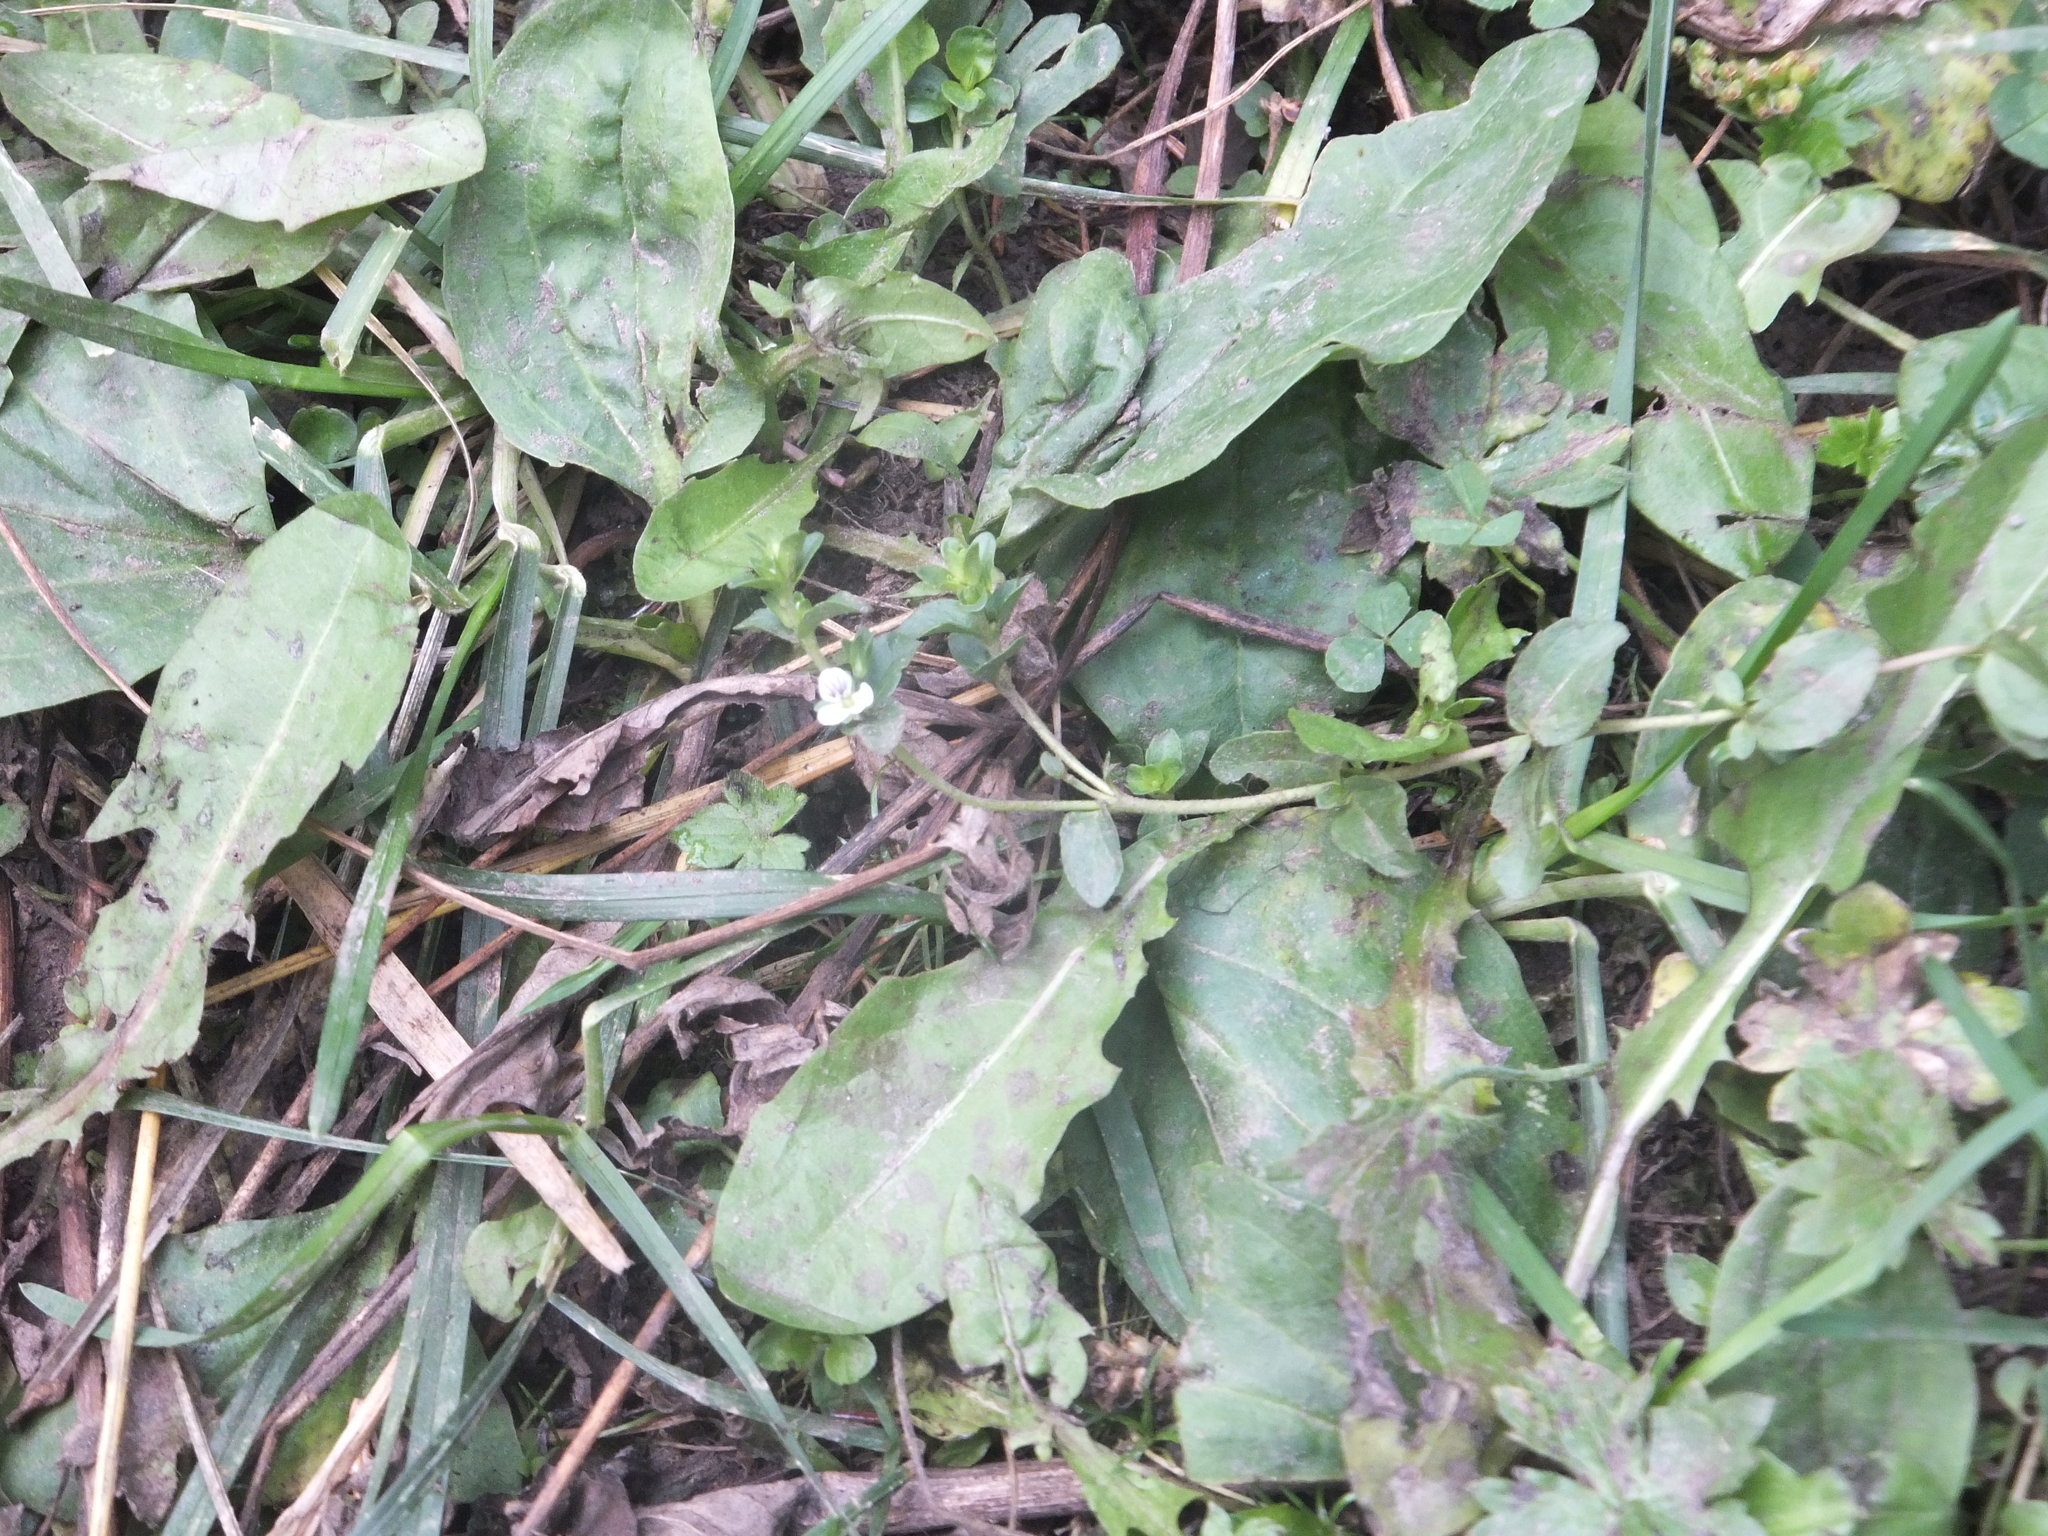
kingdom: Plantae
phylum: Tracheophyta
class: Magnoliopsida
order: Lamiales
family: Plantaginaceae
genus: Veronica
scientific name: Veronica serpyllifolia
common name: Thyme-leaved speedwell
